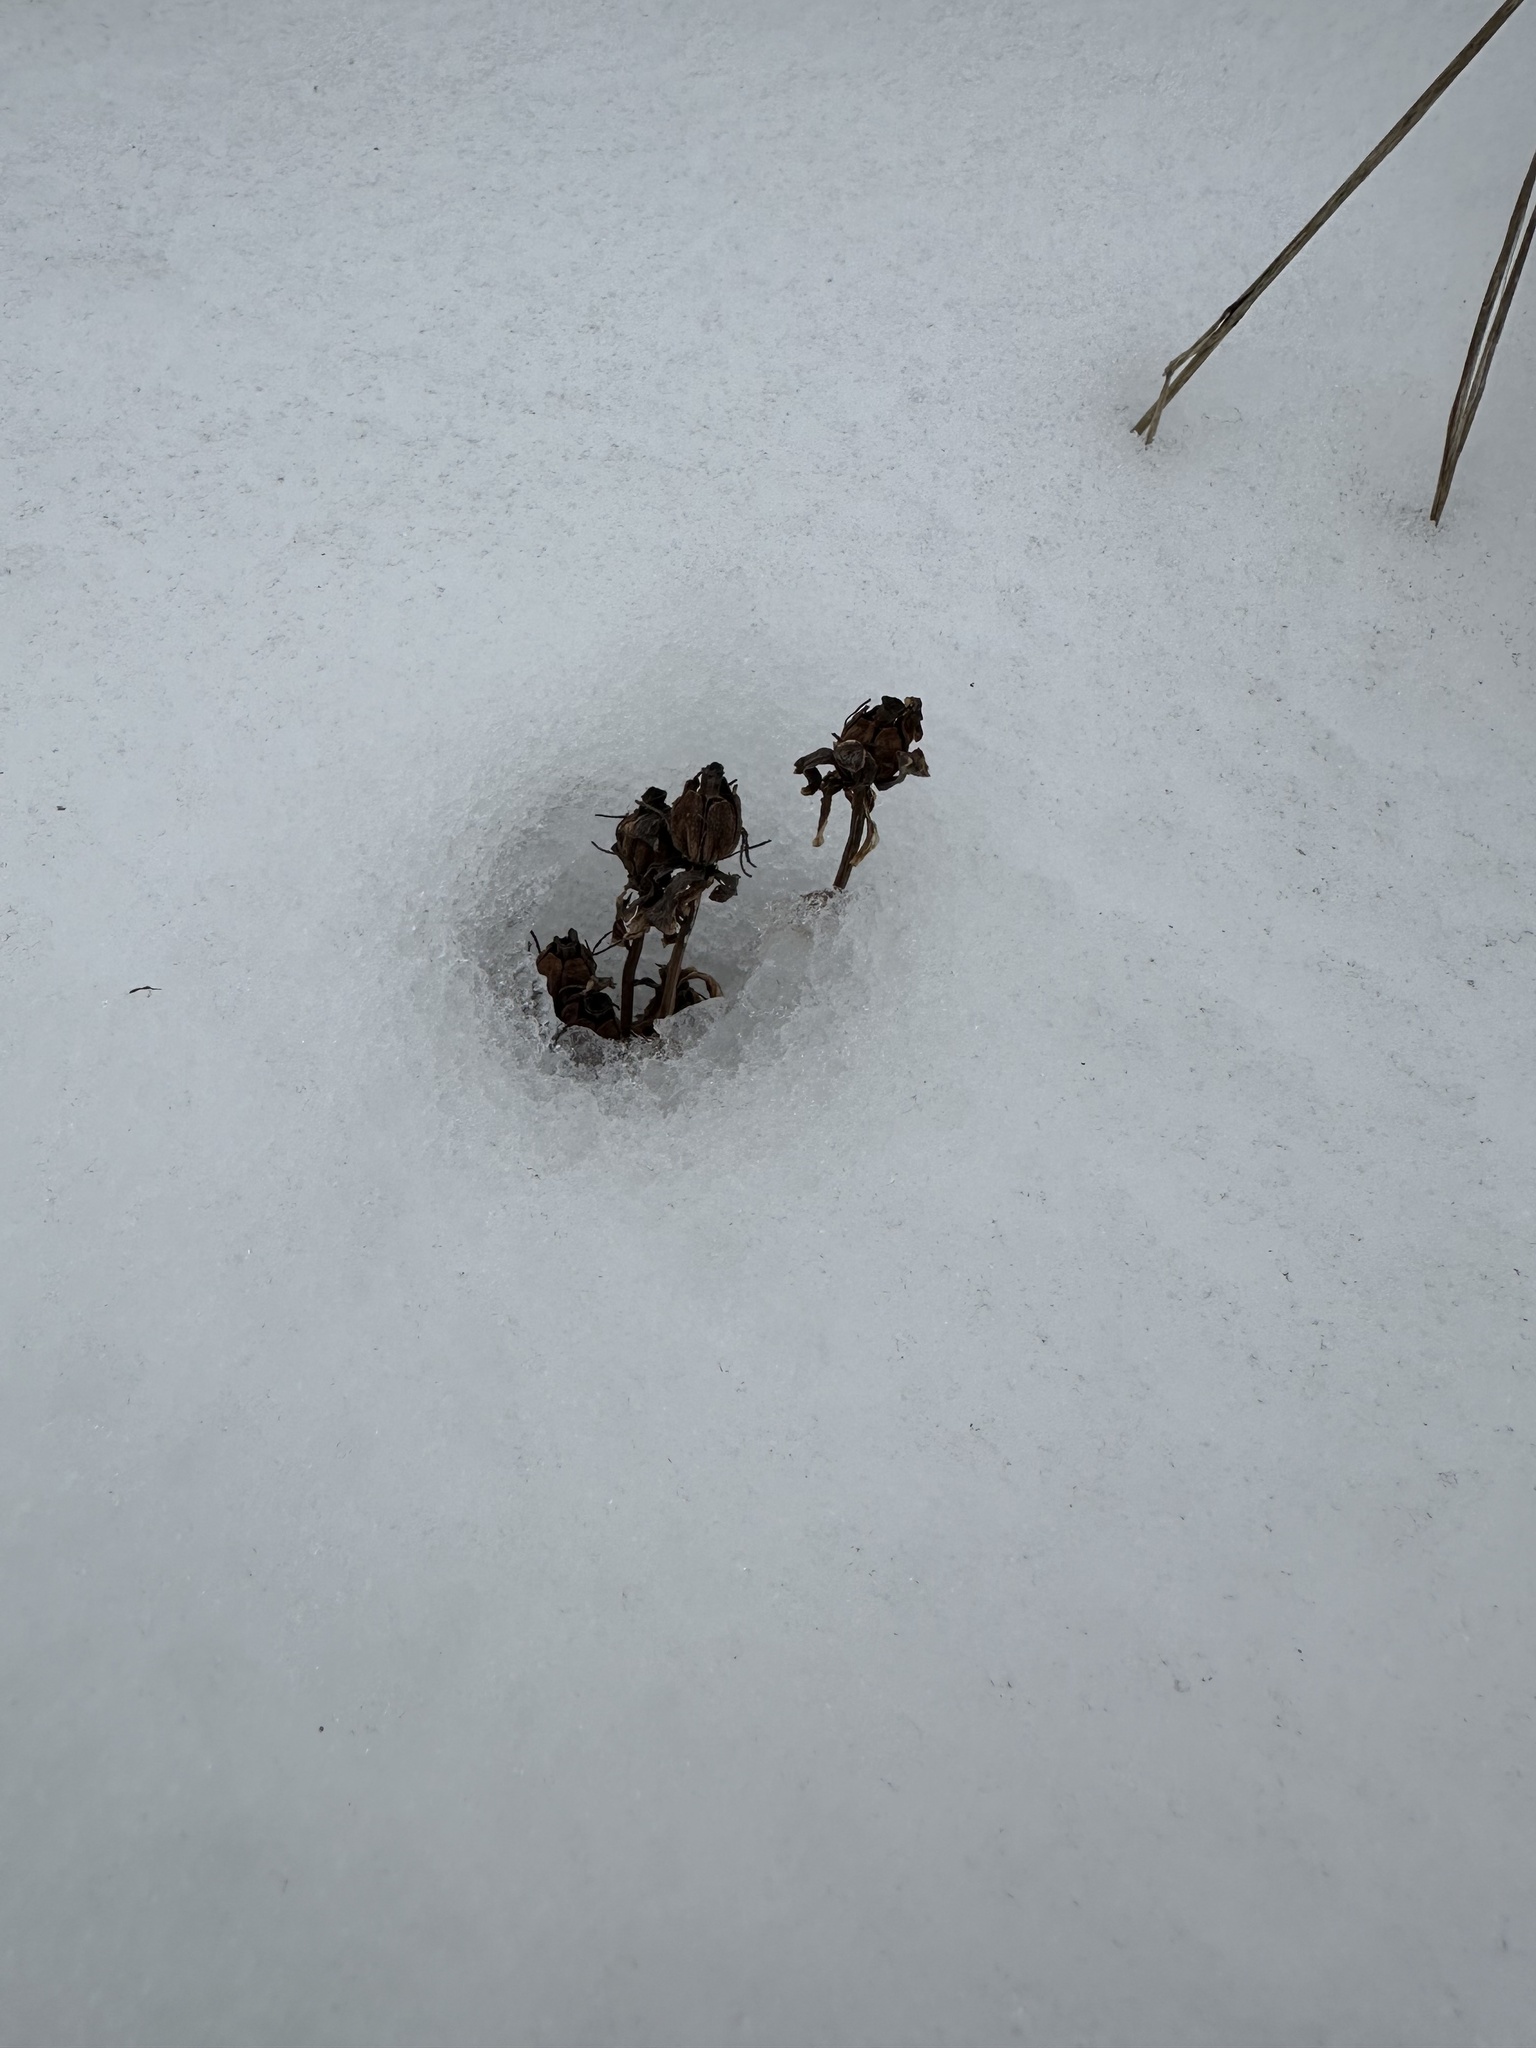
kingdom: Plantae
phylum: Tracheophyta
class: Magnoliopsida
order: Ericales
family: Ericaceae
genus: Monotropa
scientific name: Monotropa uniflora
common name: Convulsion root
